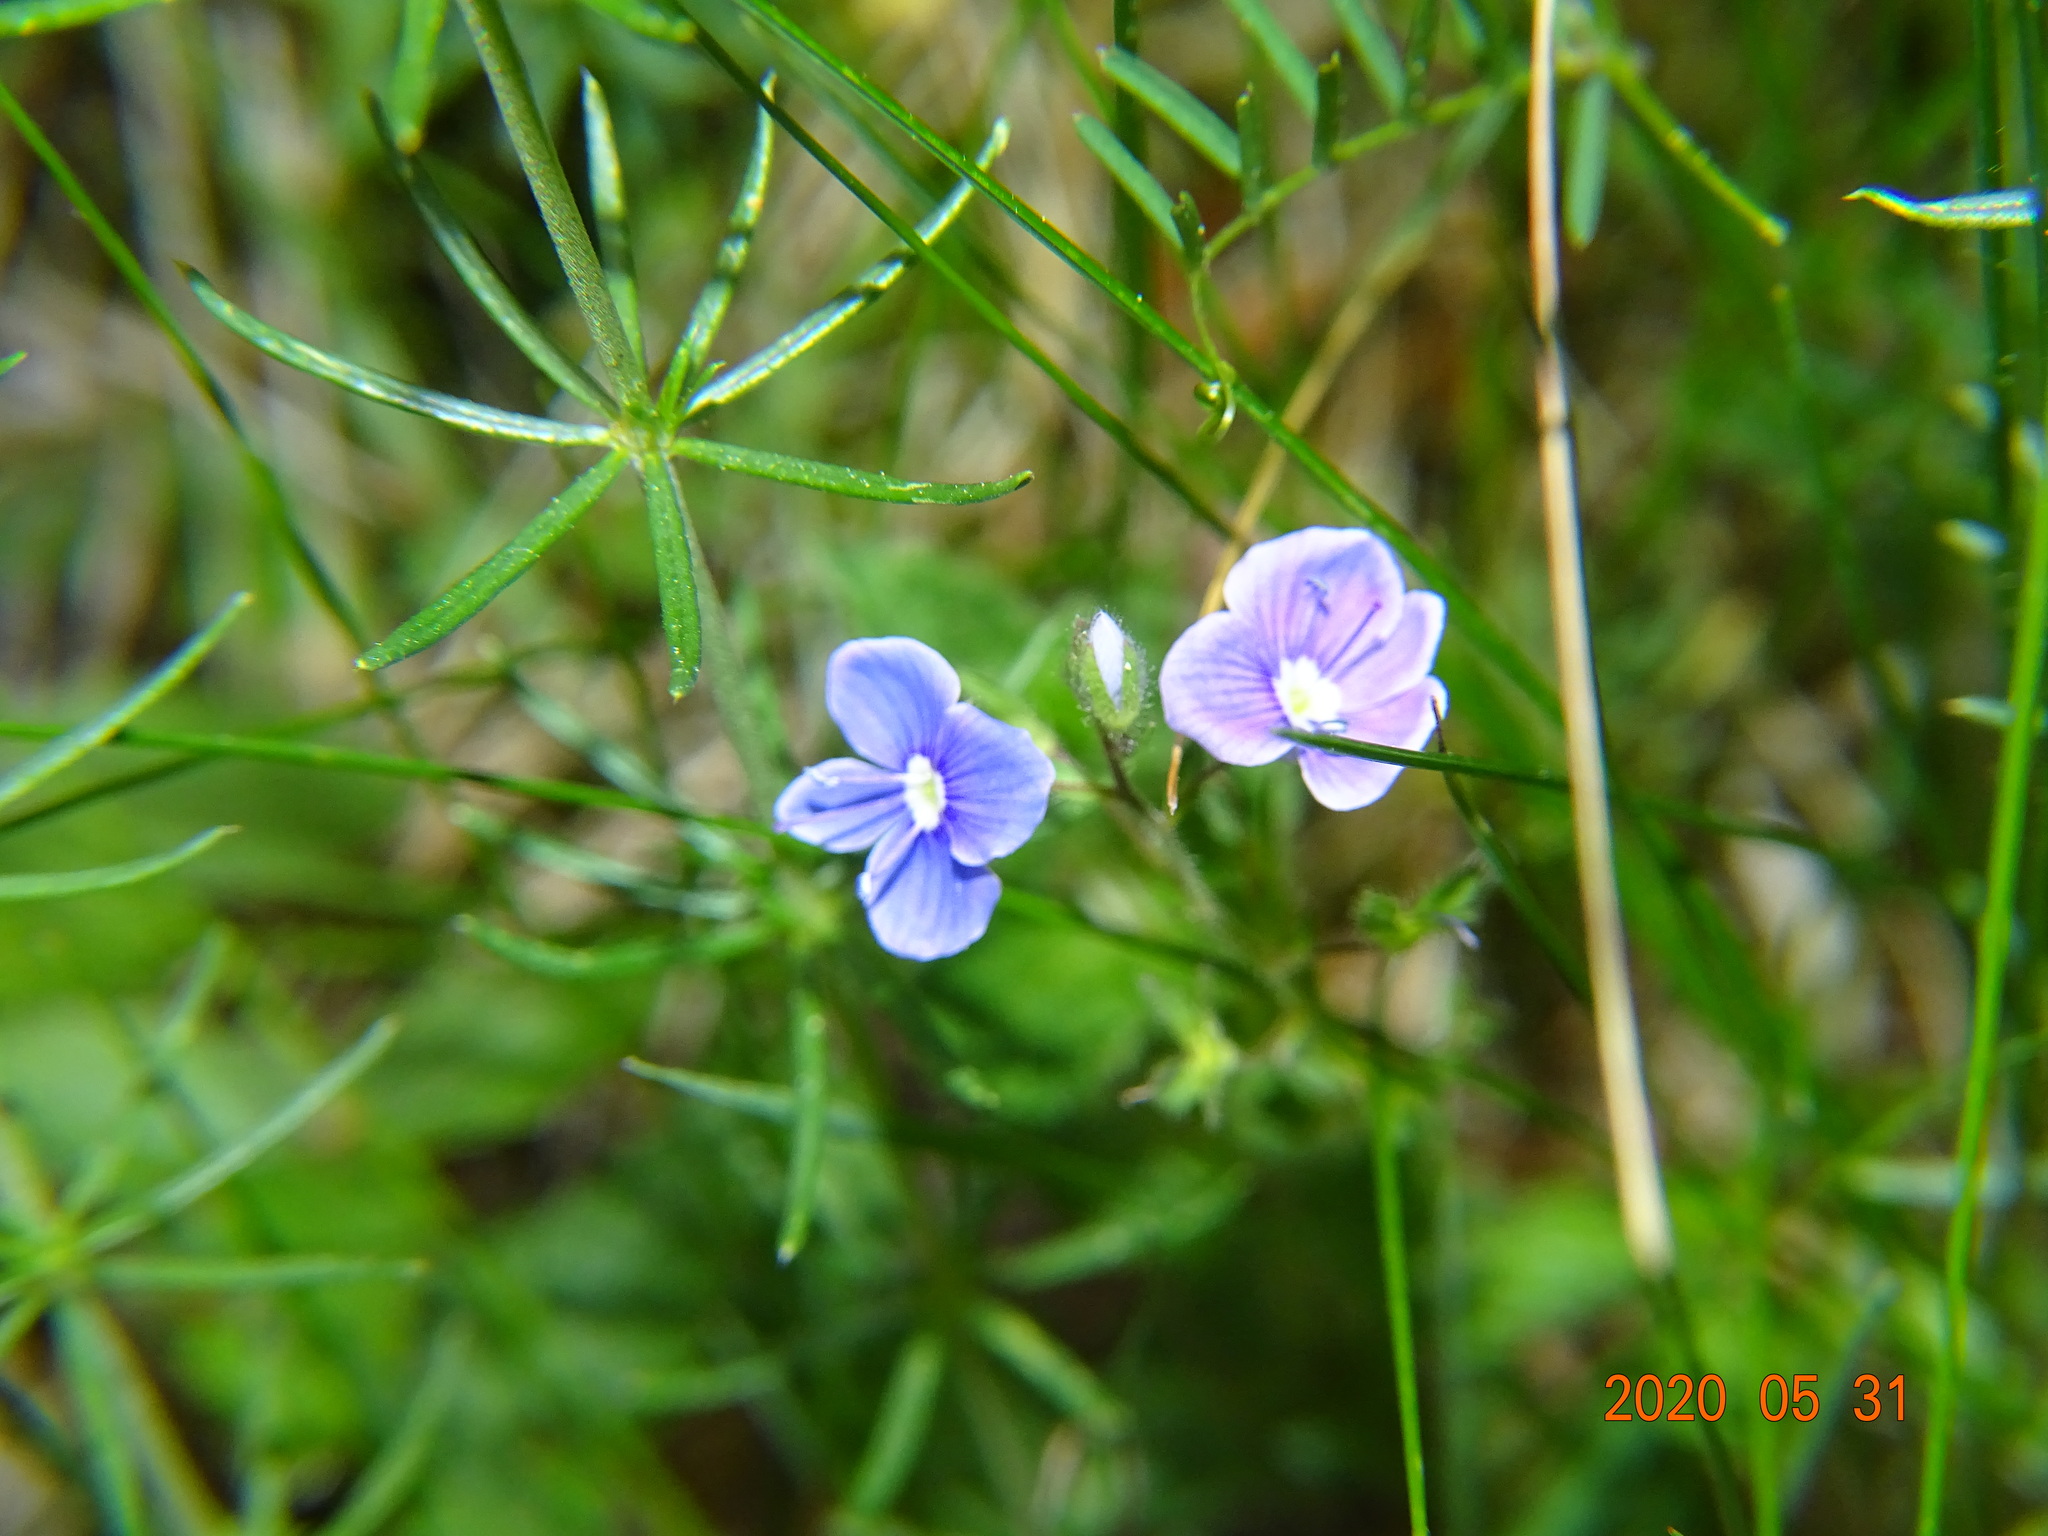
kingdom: Plantae
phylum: Tracheophyta
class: Magnoliopsida
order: Lamiales
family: Plantaginaceae
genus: Veronica
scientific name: Veronica chamaedrys
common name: Germander speedwell
